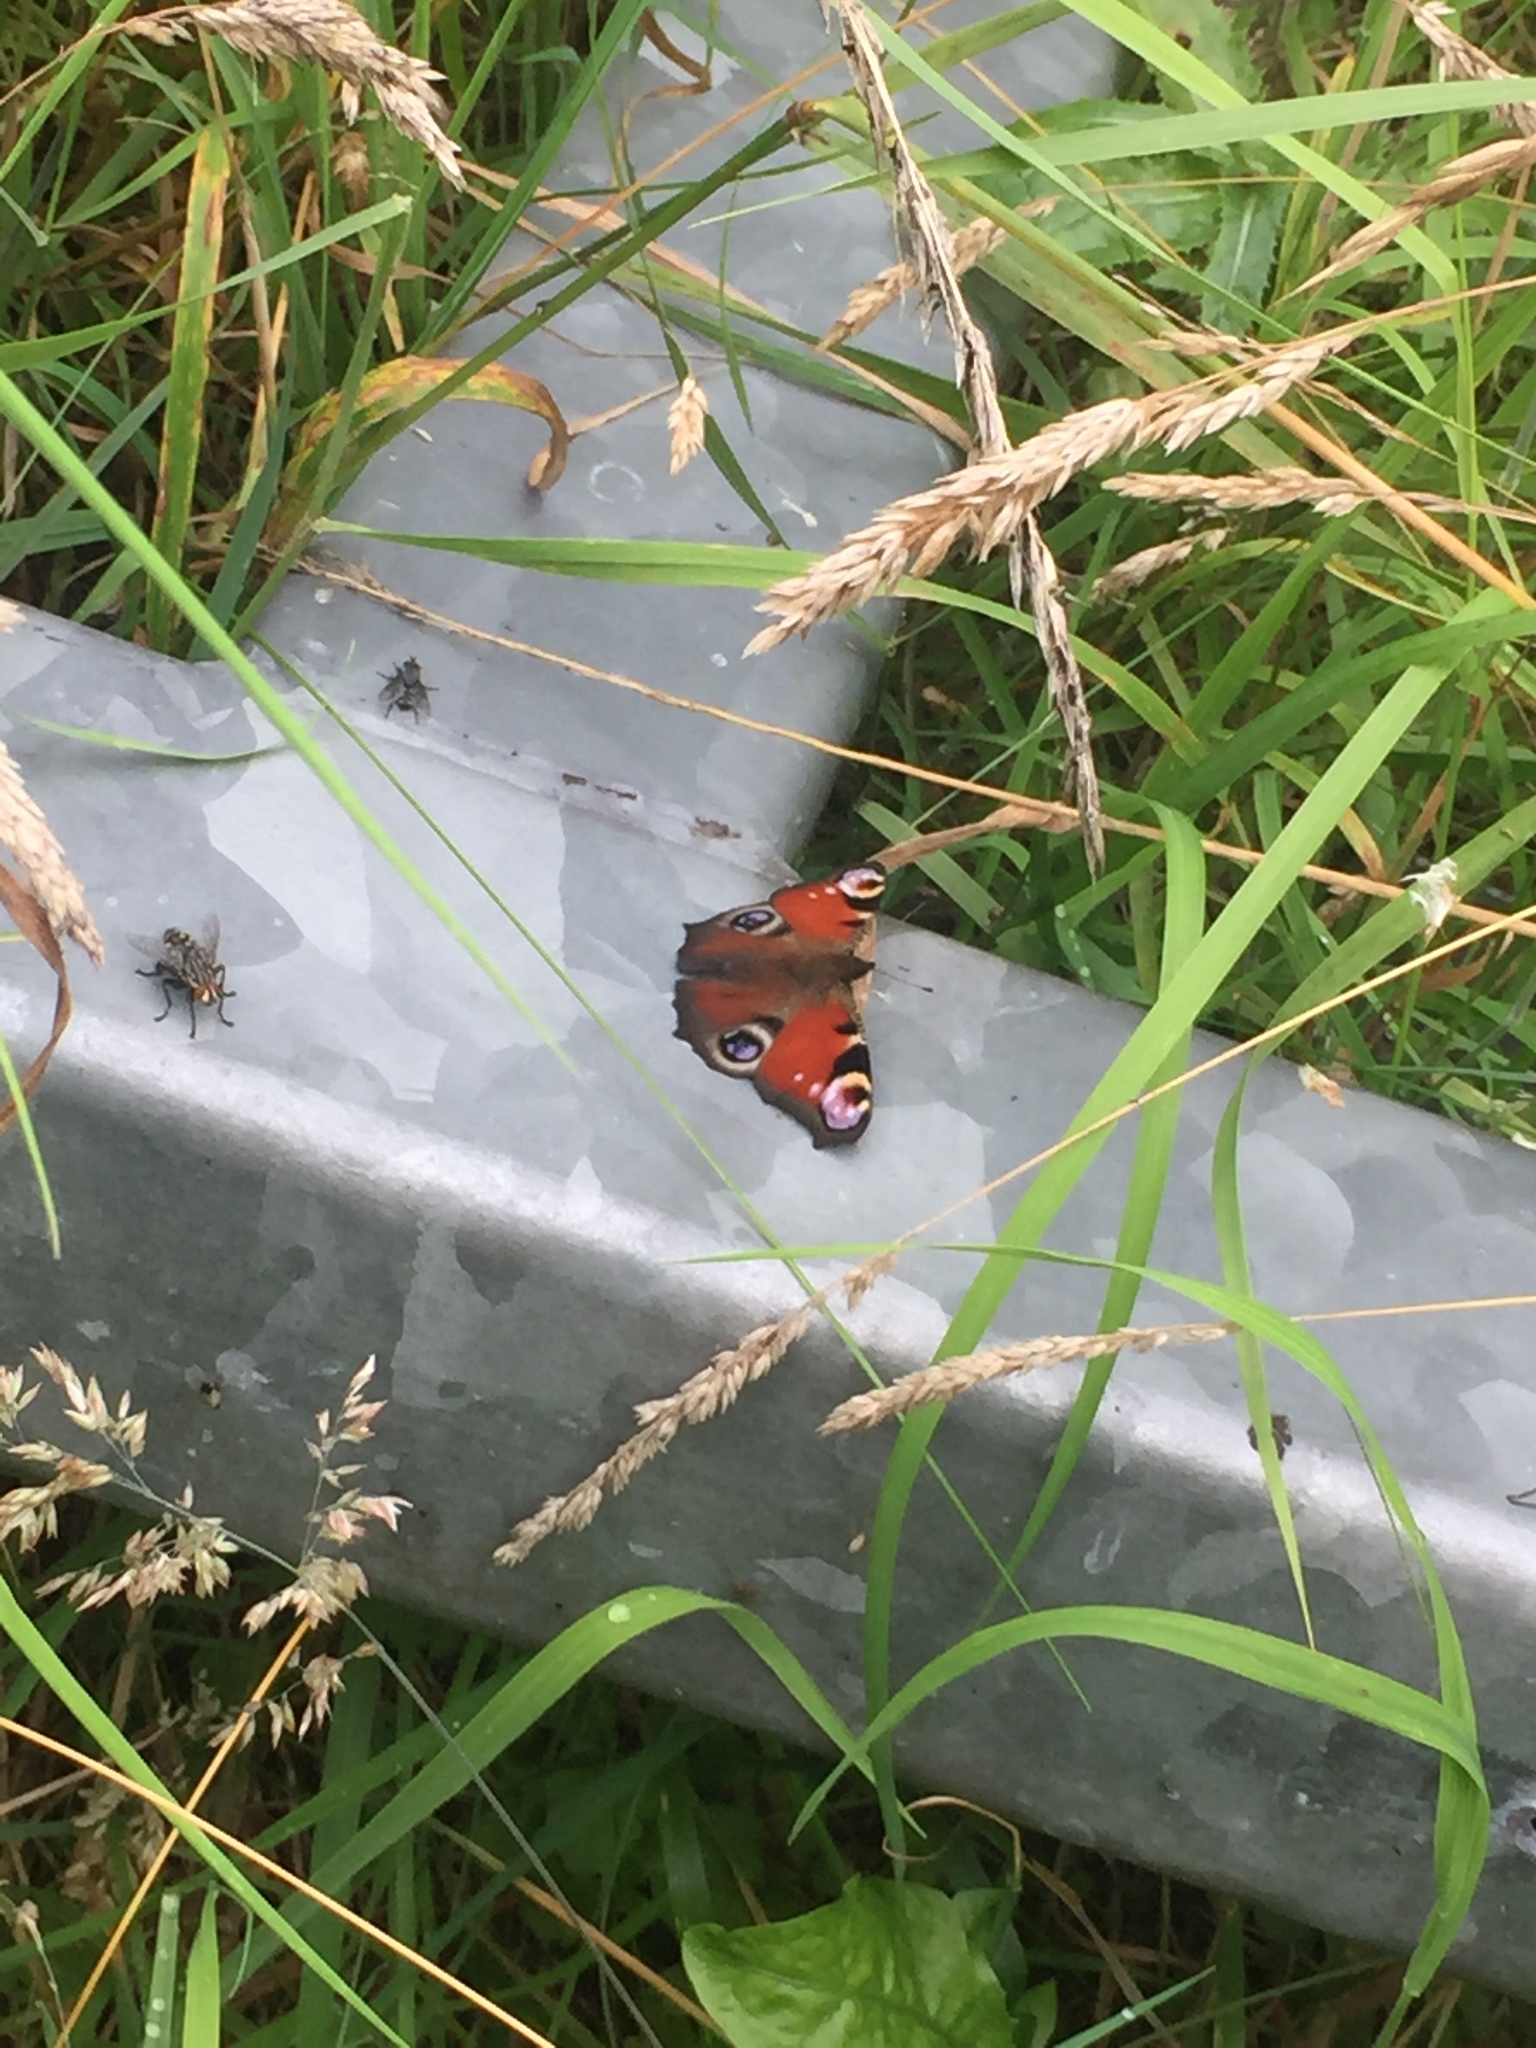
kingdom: Animalia
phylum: Arthropoda
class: Insecta
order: Lepidoptera
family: Nymphalidae
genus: Aglais
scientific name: Aglais io
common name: Peacock
